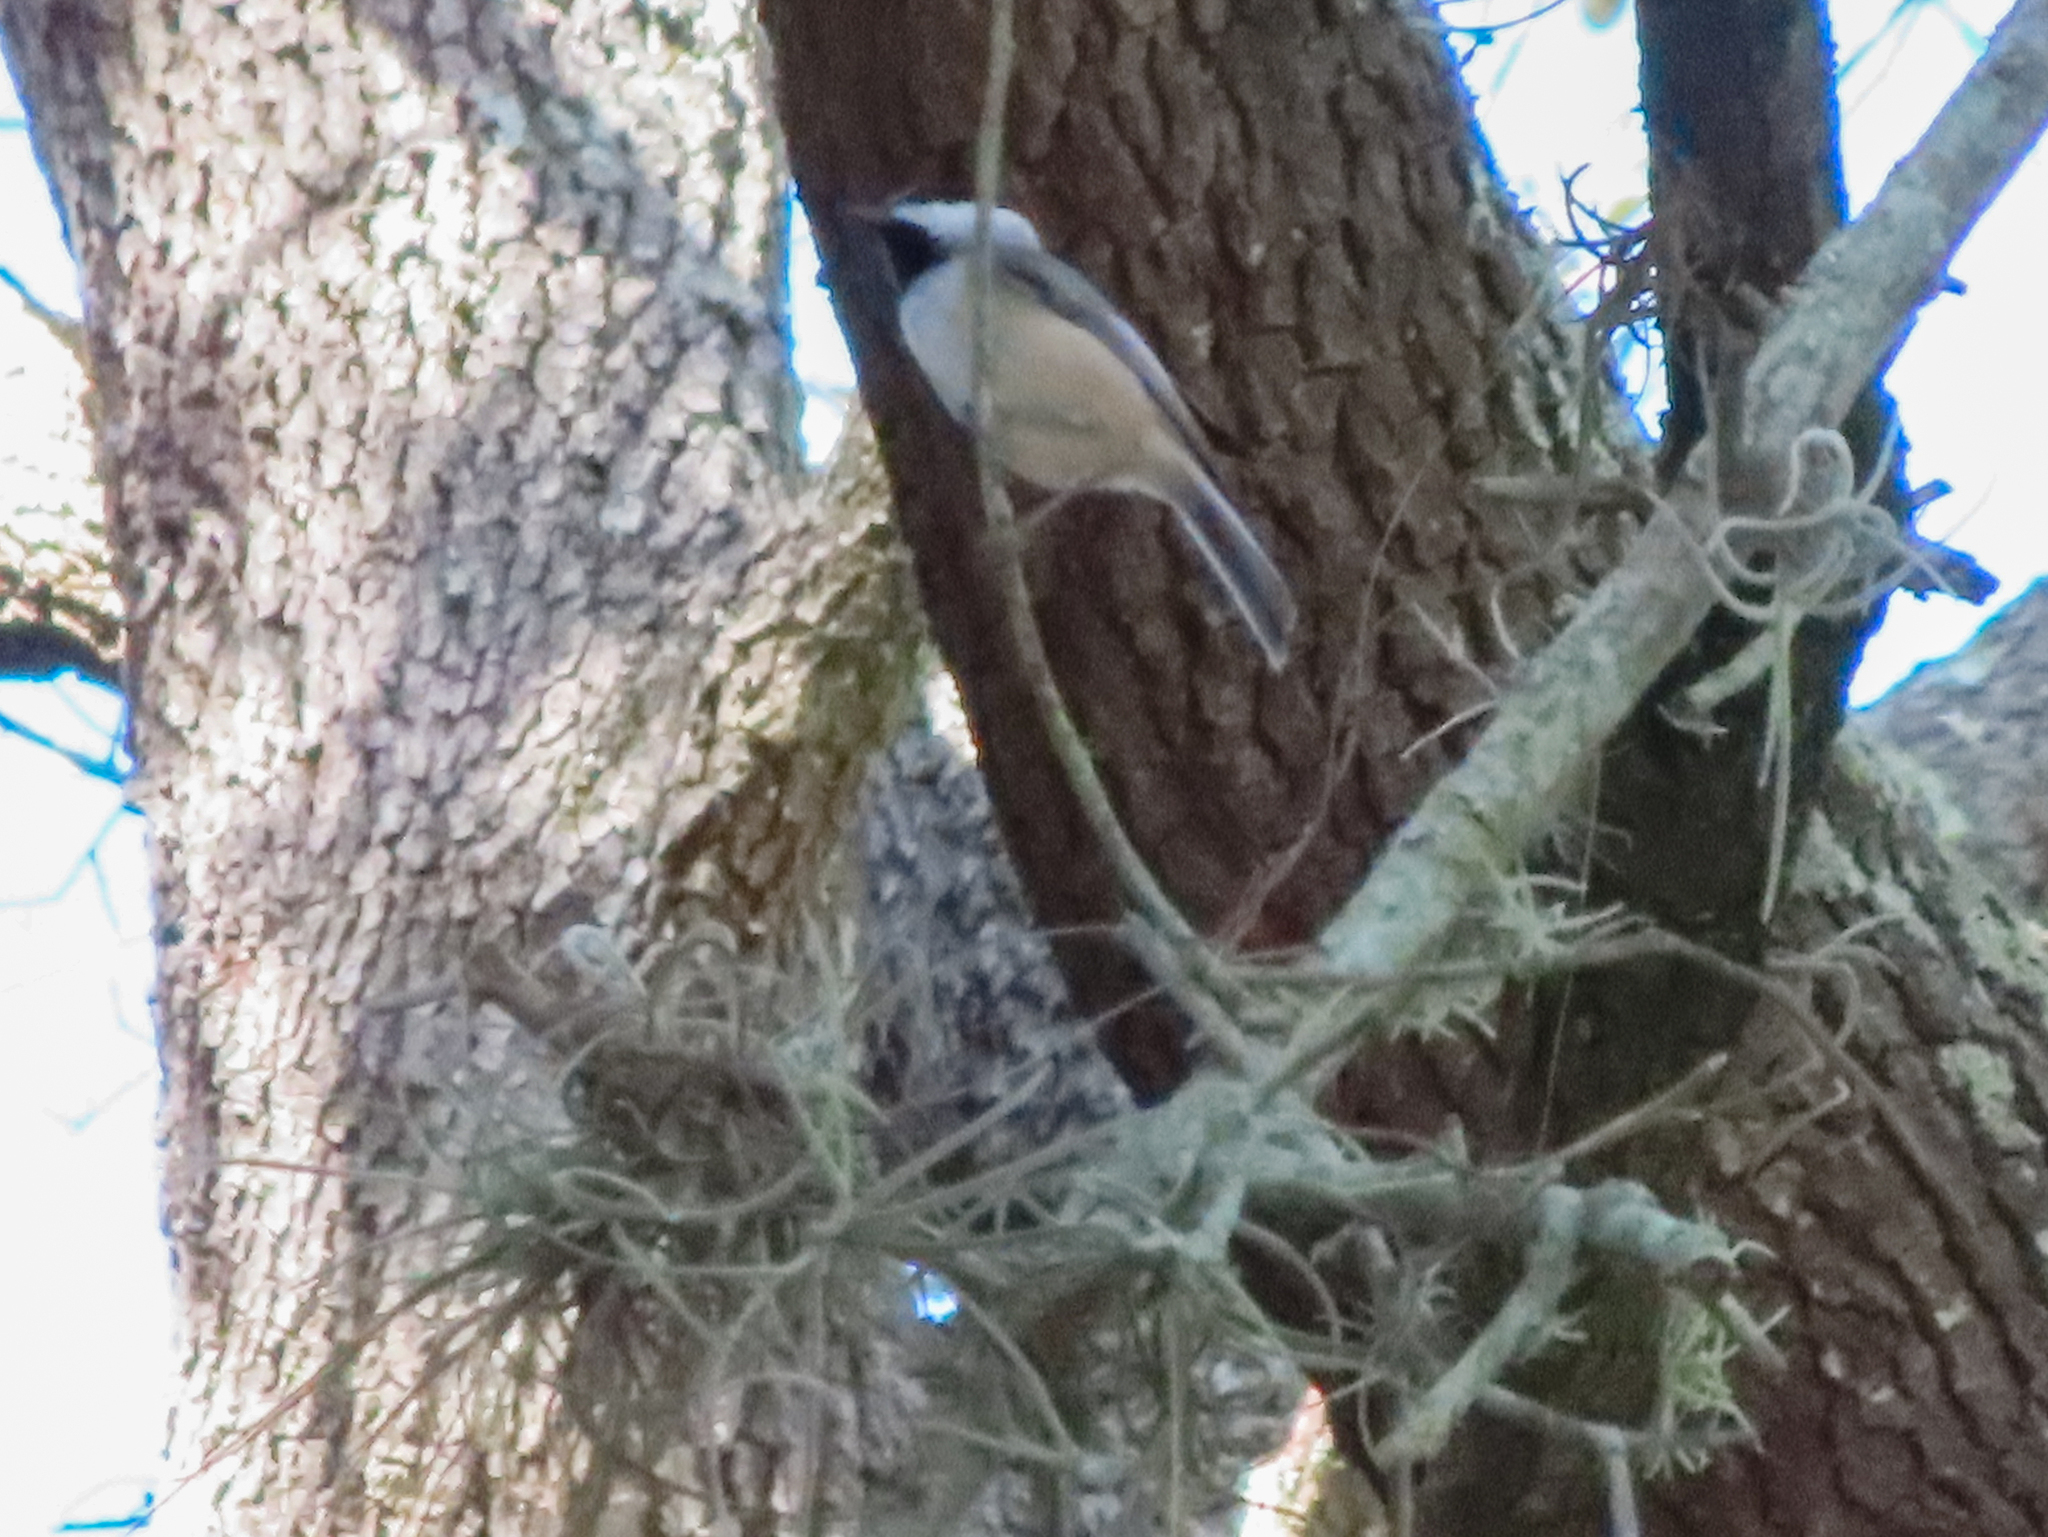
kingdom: Animalia
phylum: Chordata
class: Aves
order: Passeriformes
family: Paridae
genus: Poecile
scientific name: Poecile carolinensis
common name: Carolina chickadee
